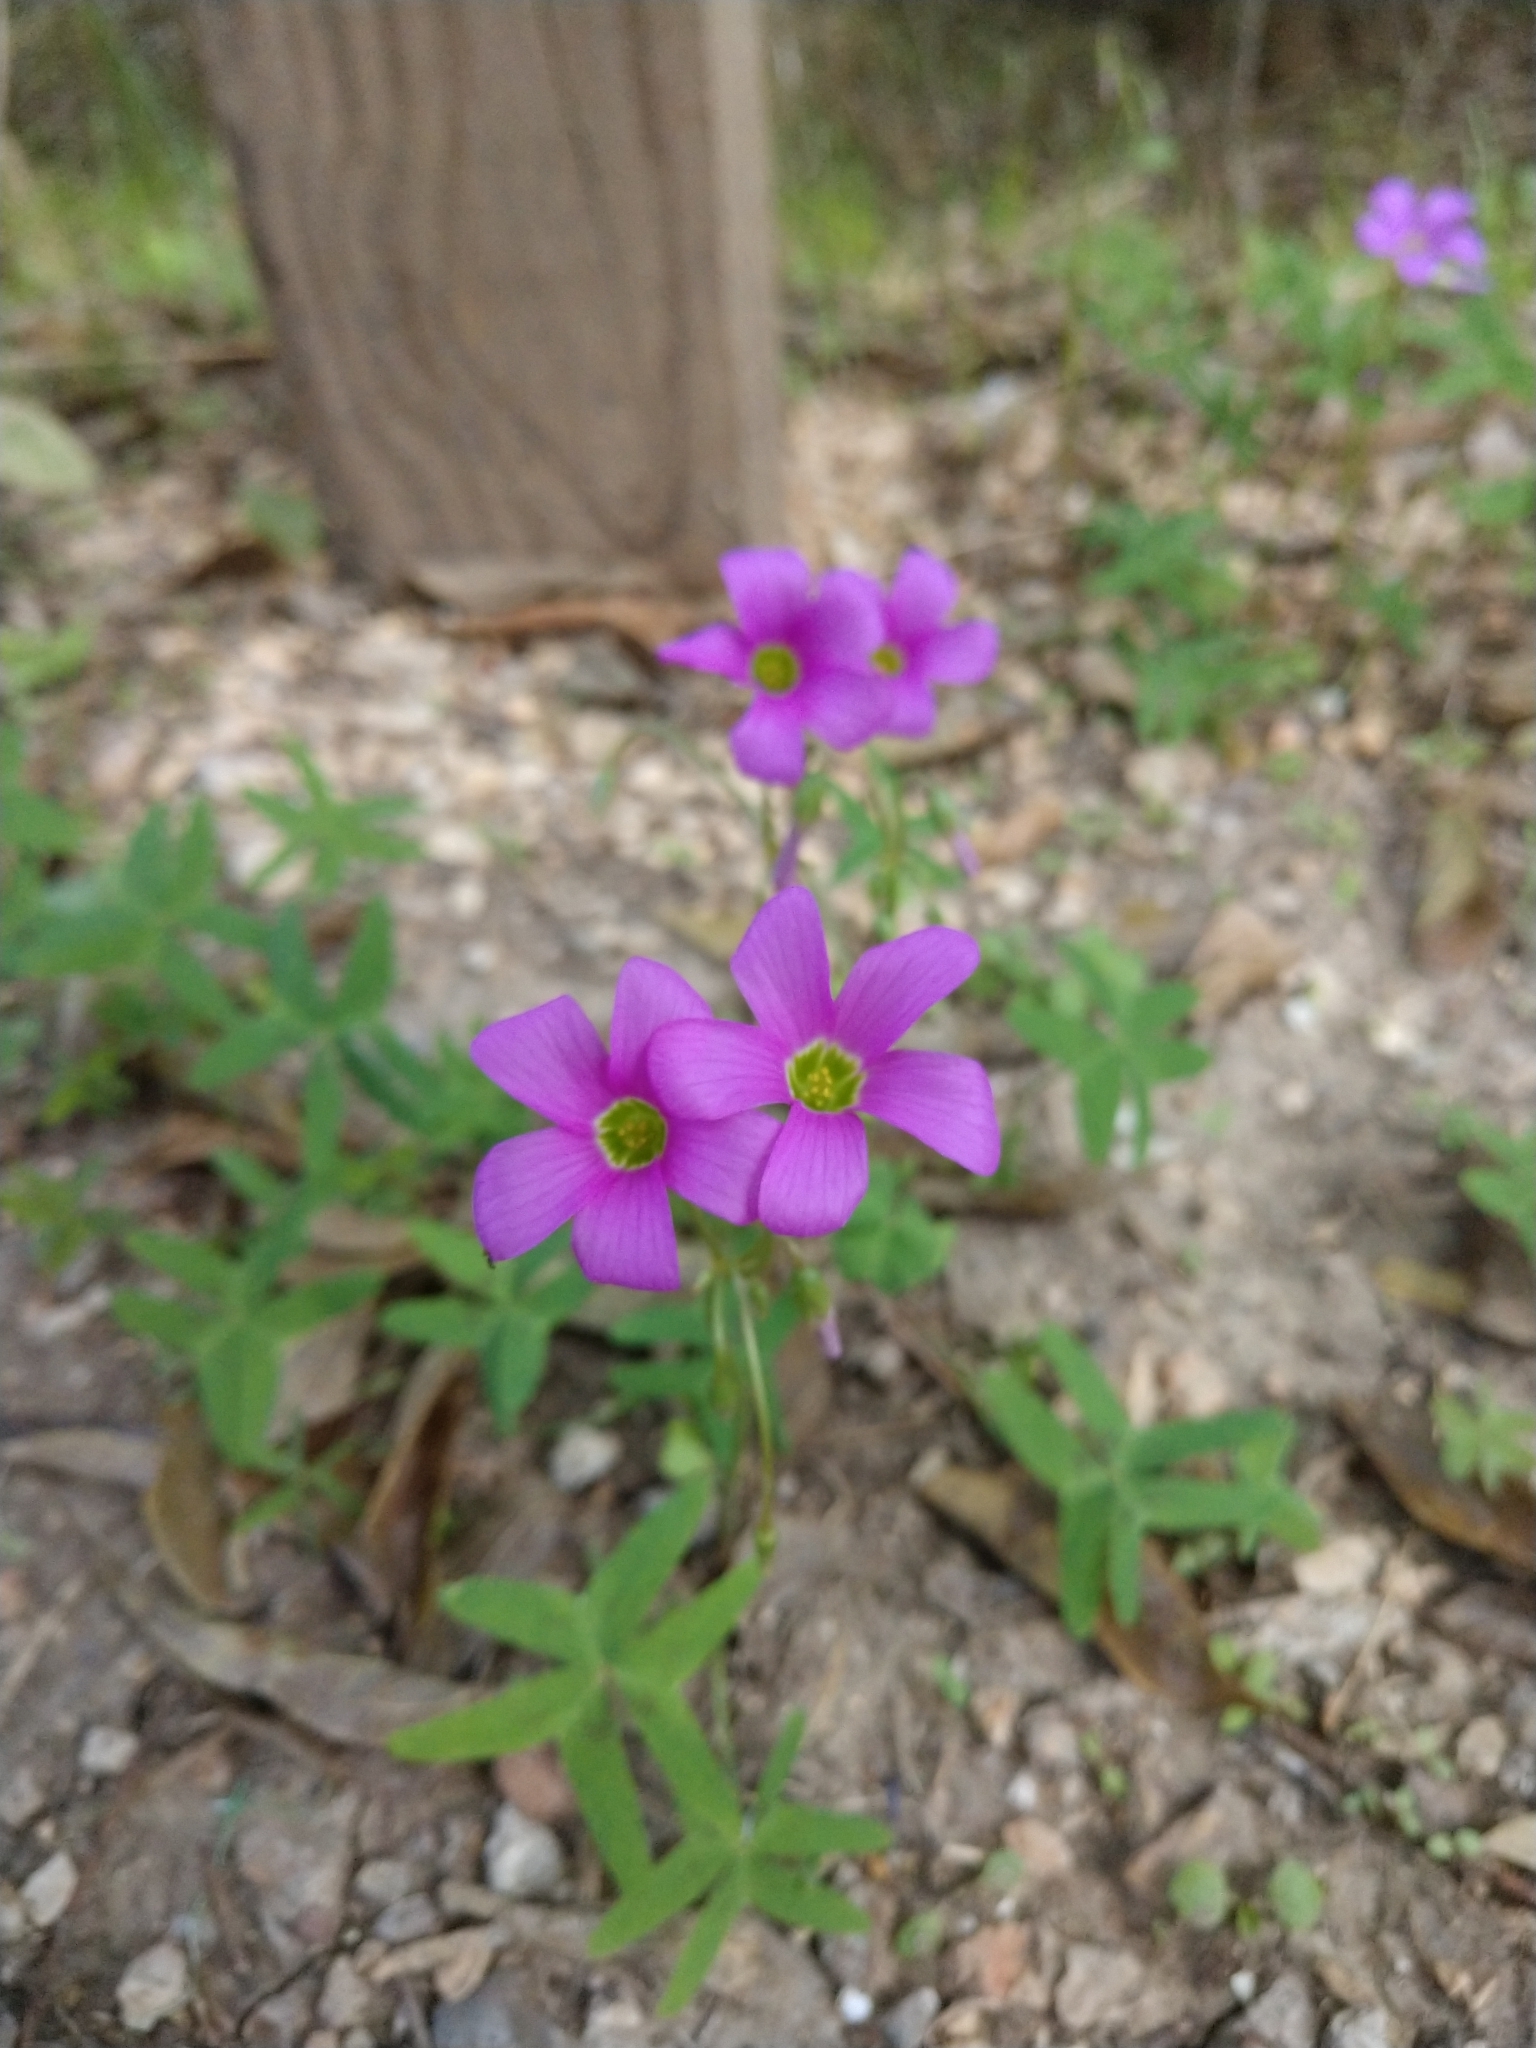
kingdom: Plantae
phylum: Tracheophyta
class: Magnoliopsida
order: Oxalidales
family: Oxalidaceae
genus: Oxalis
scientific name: Oxalis drummondii
